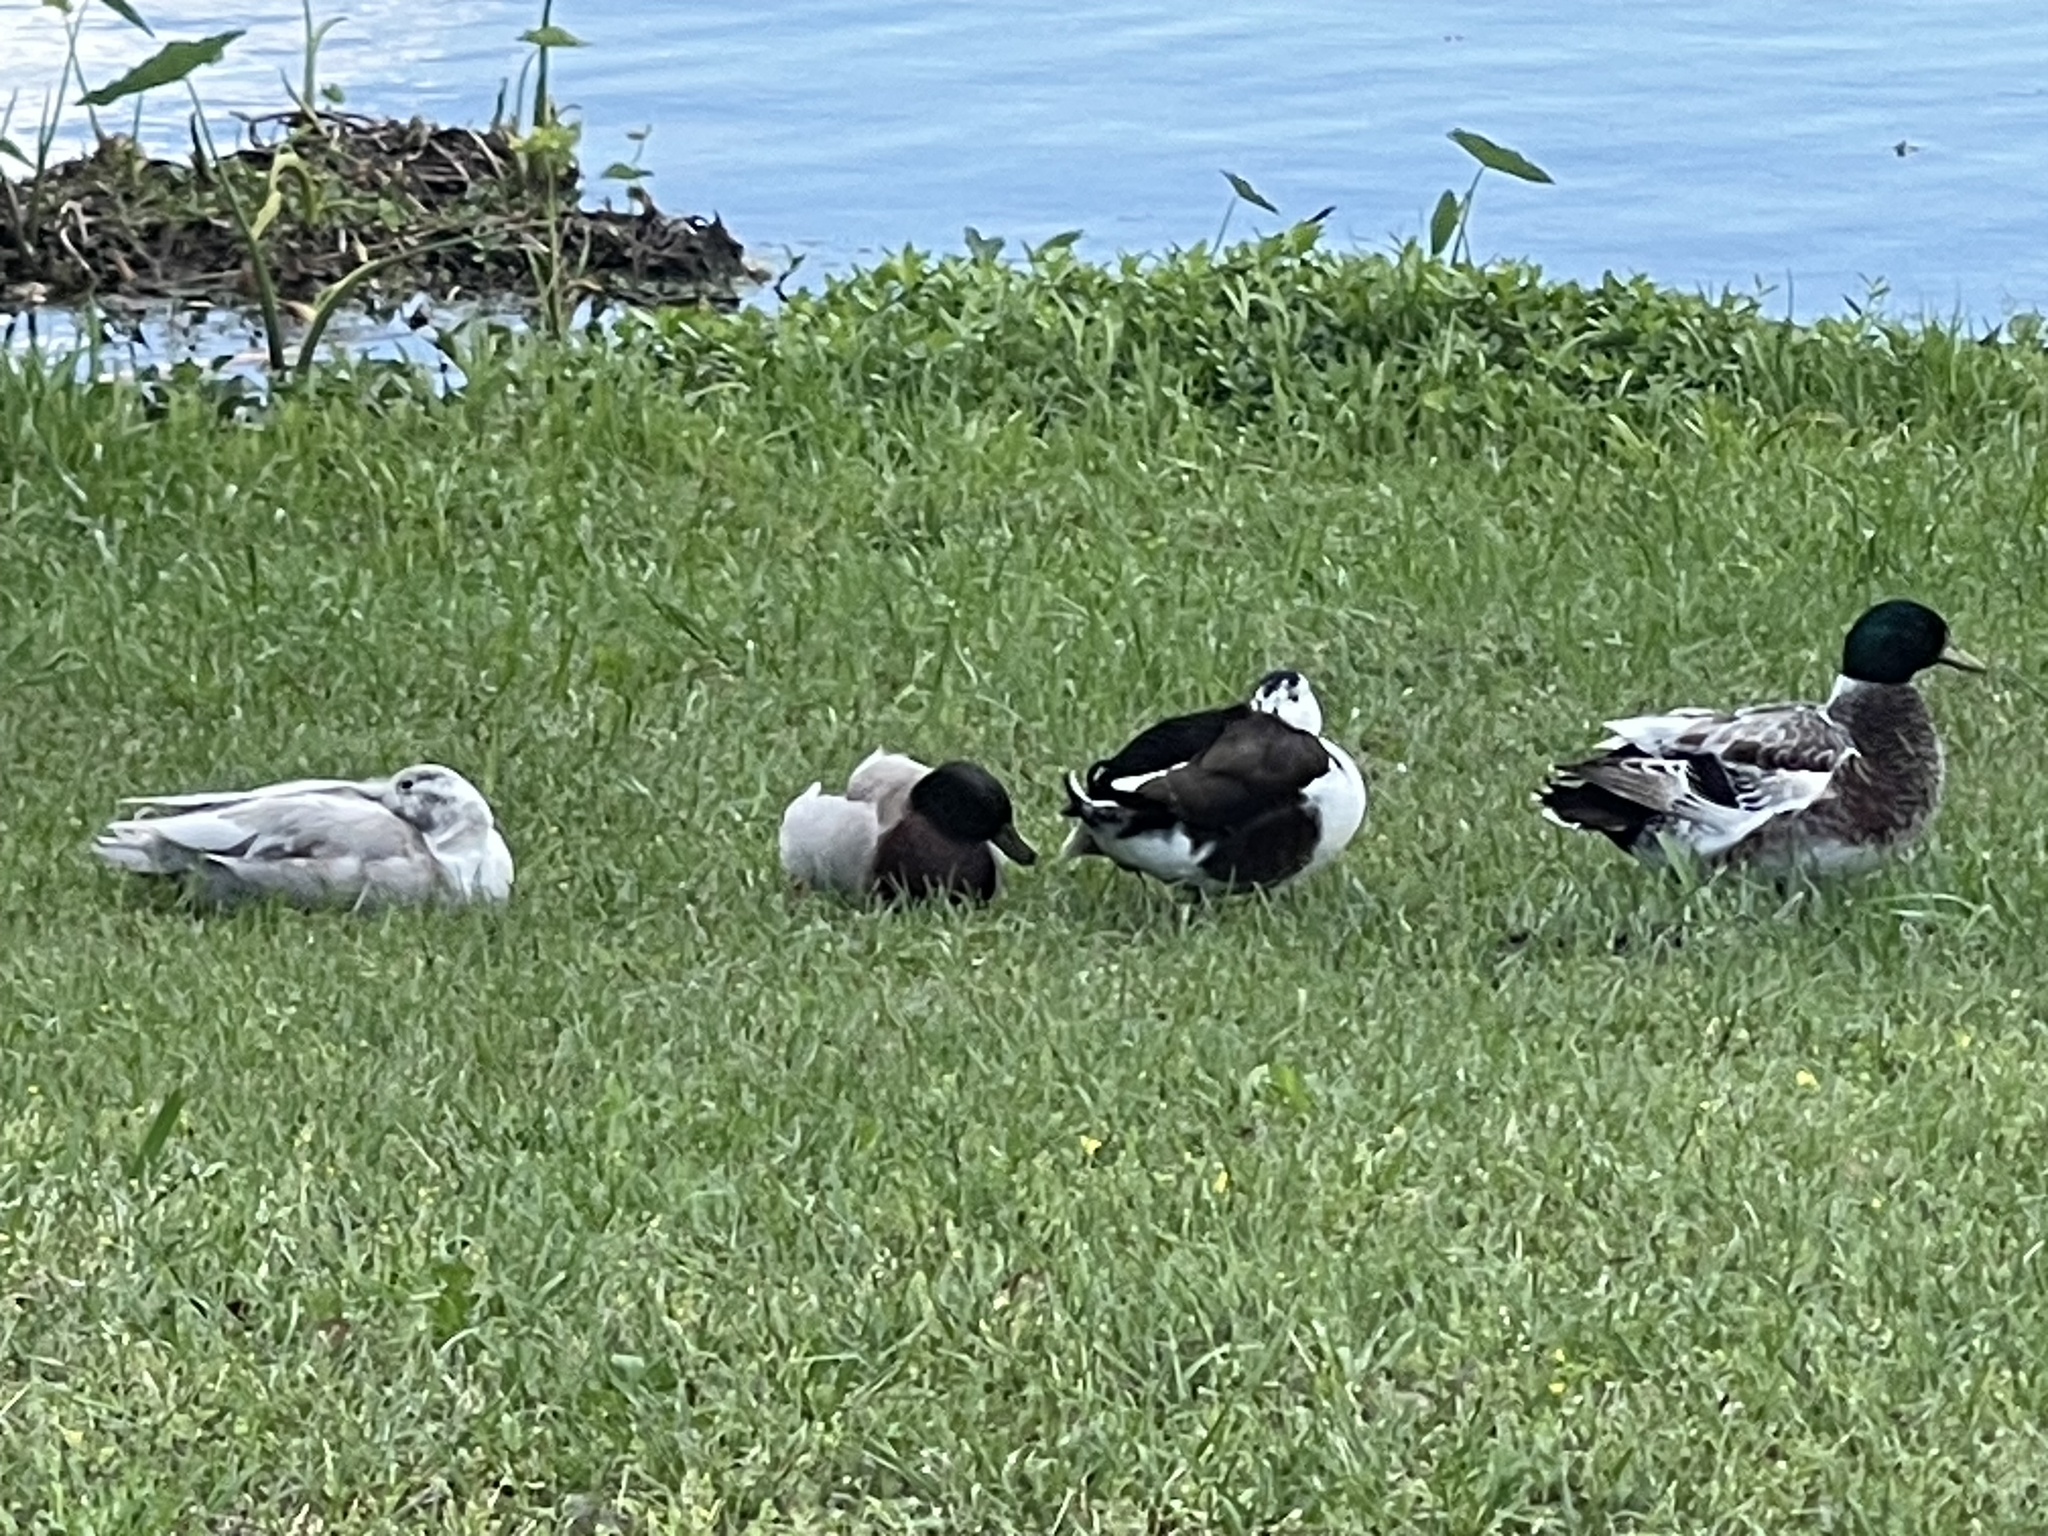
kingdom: Animalia
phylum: Chordata
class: Aves
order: Anseriformes
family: Anatidae
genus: Anas
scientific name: Anas platyrhynchos
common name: Mallard
